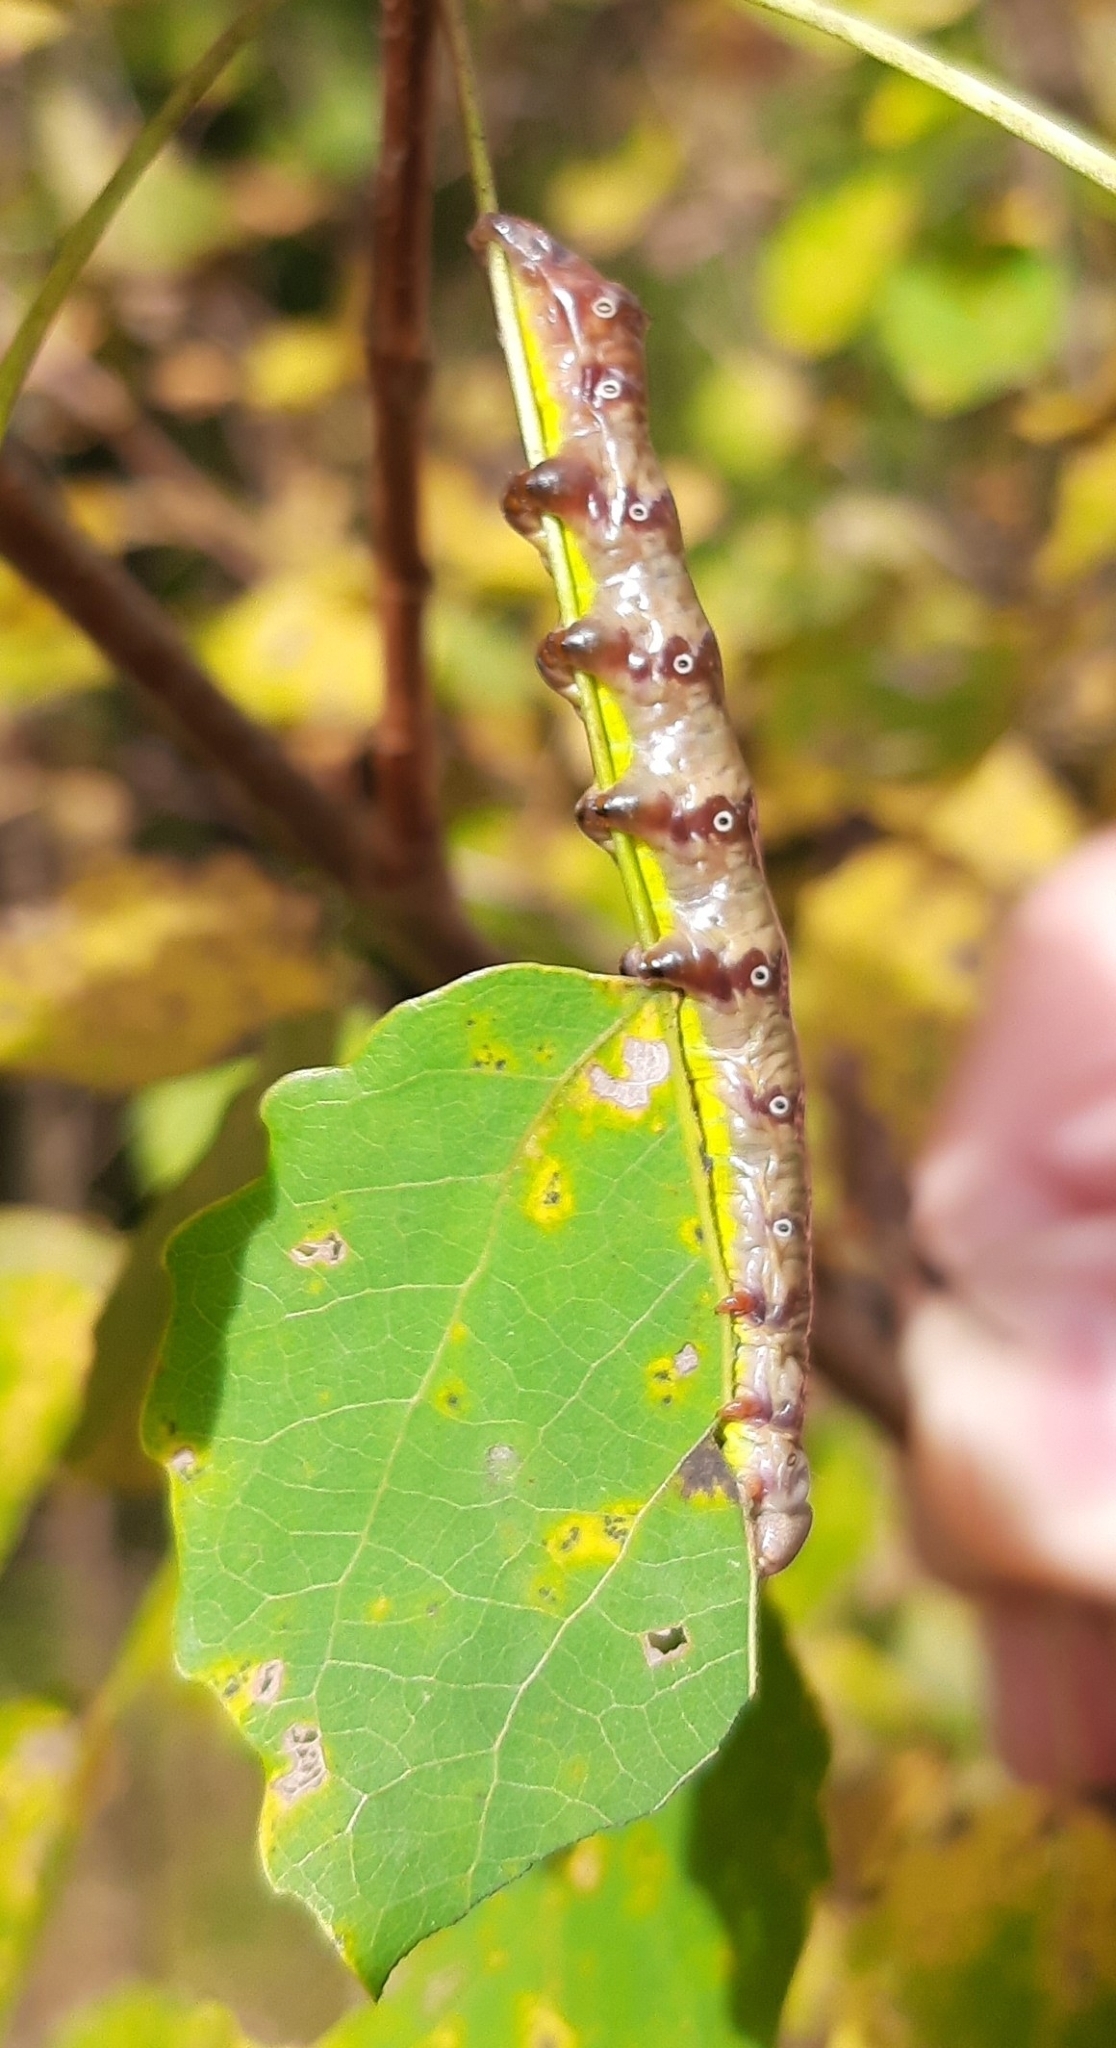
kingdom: Animalia
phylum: Arthropoda
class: Insecta
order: Lepidoptera
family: Notodontidae
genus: Pheosia
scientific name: Pheosia tremula
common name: Swallow prominent
